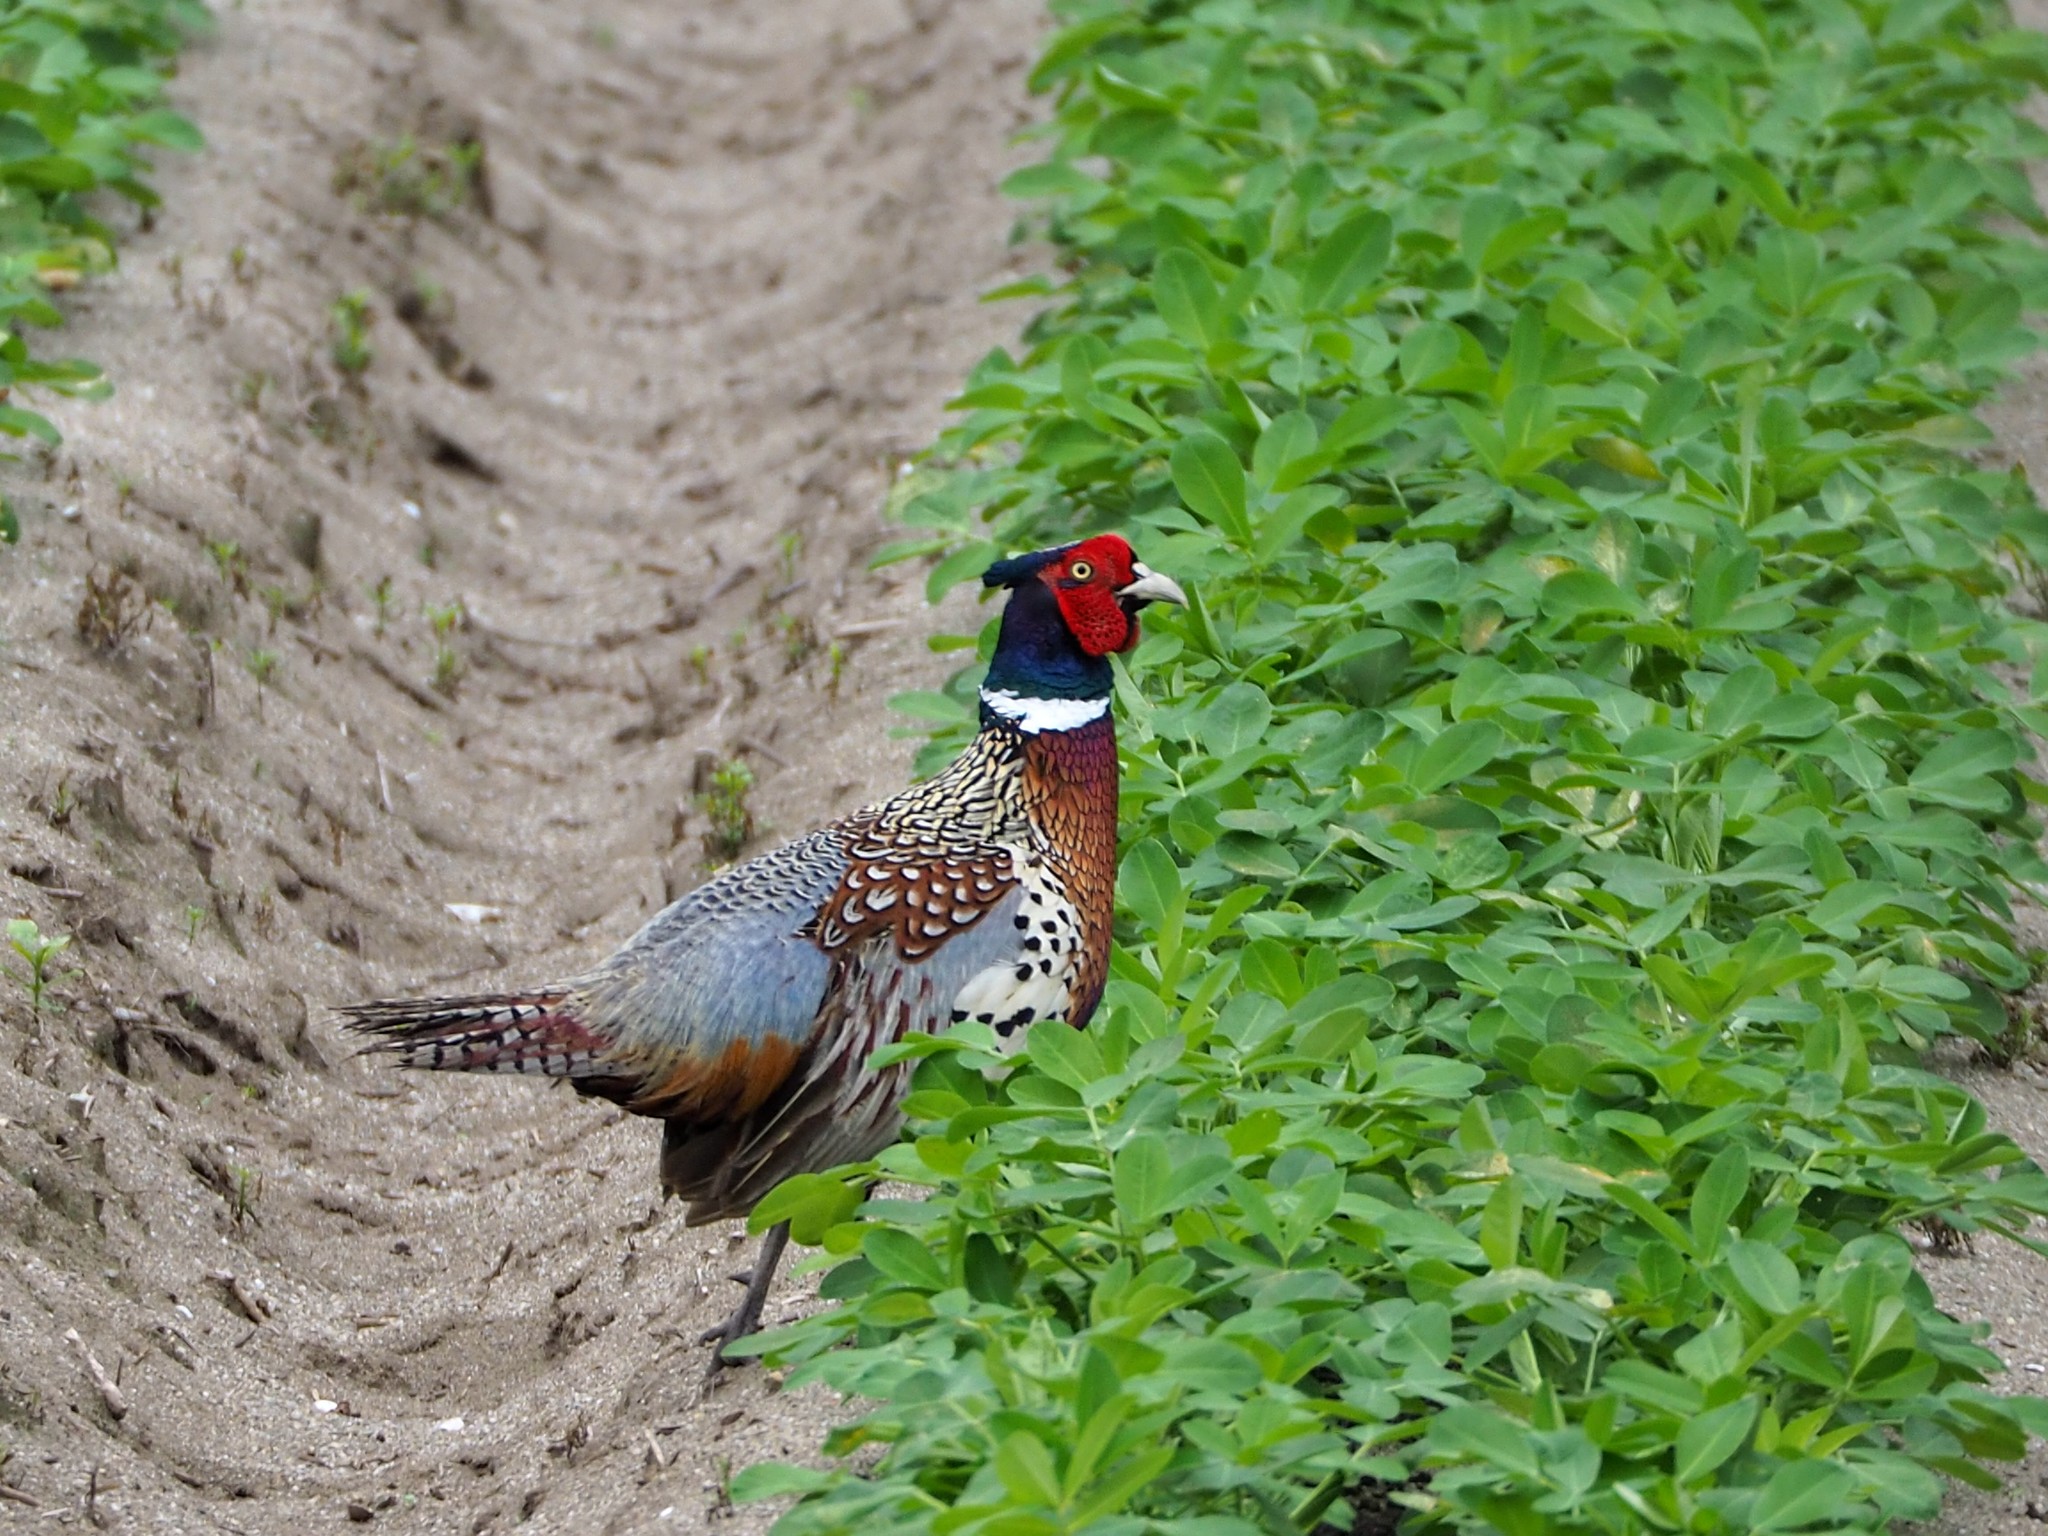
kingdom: Animalia
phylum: Chordata
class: Aves
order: Galliformes
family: Phasianidae
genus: Phasianus
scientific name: Phasianus colchicus
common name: Common pheasant
